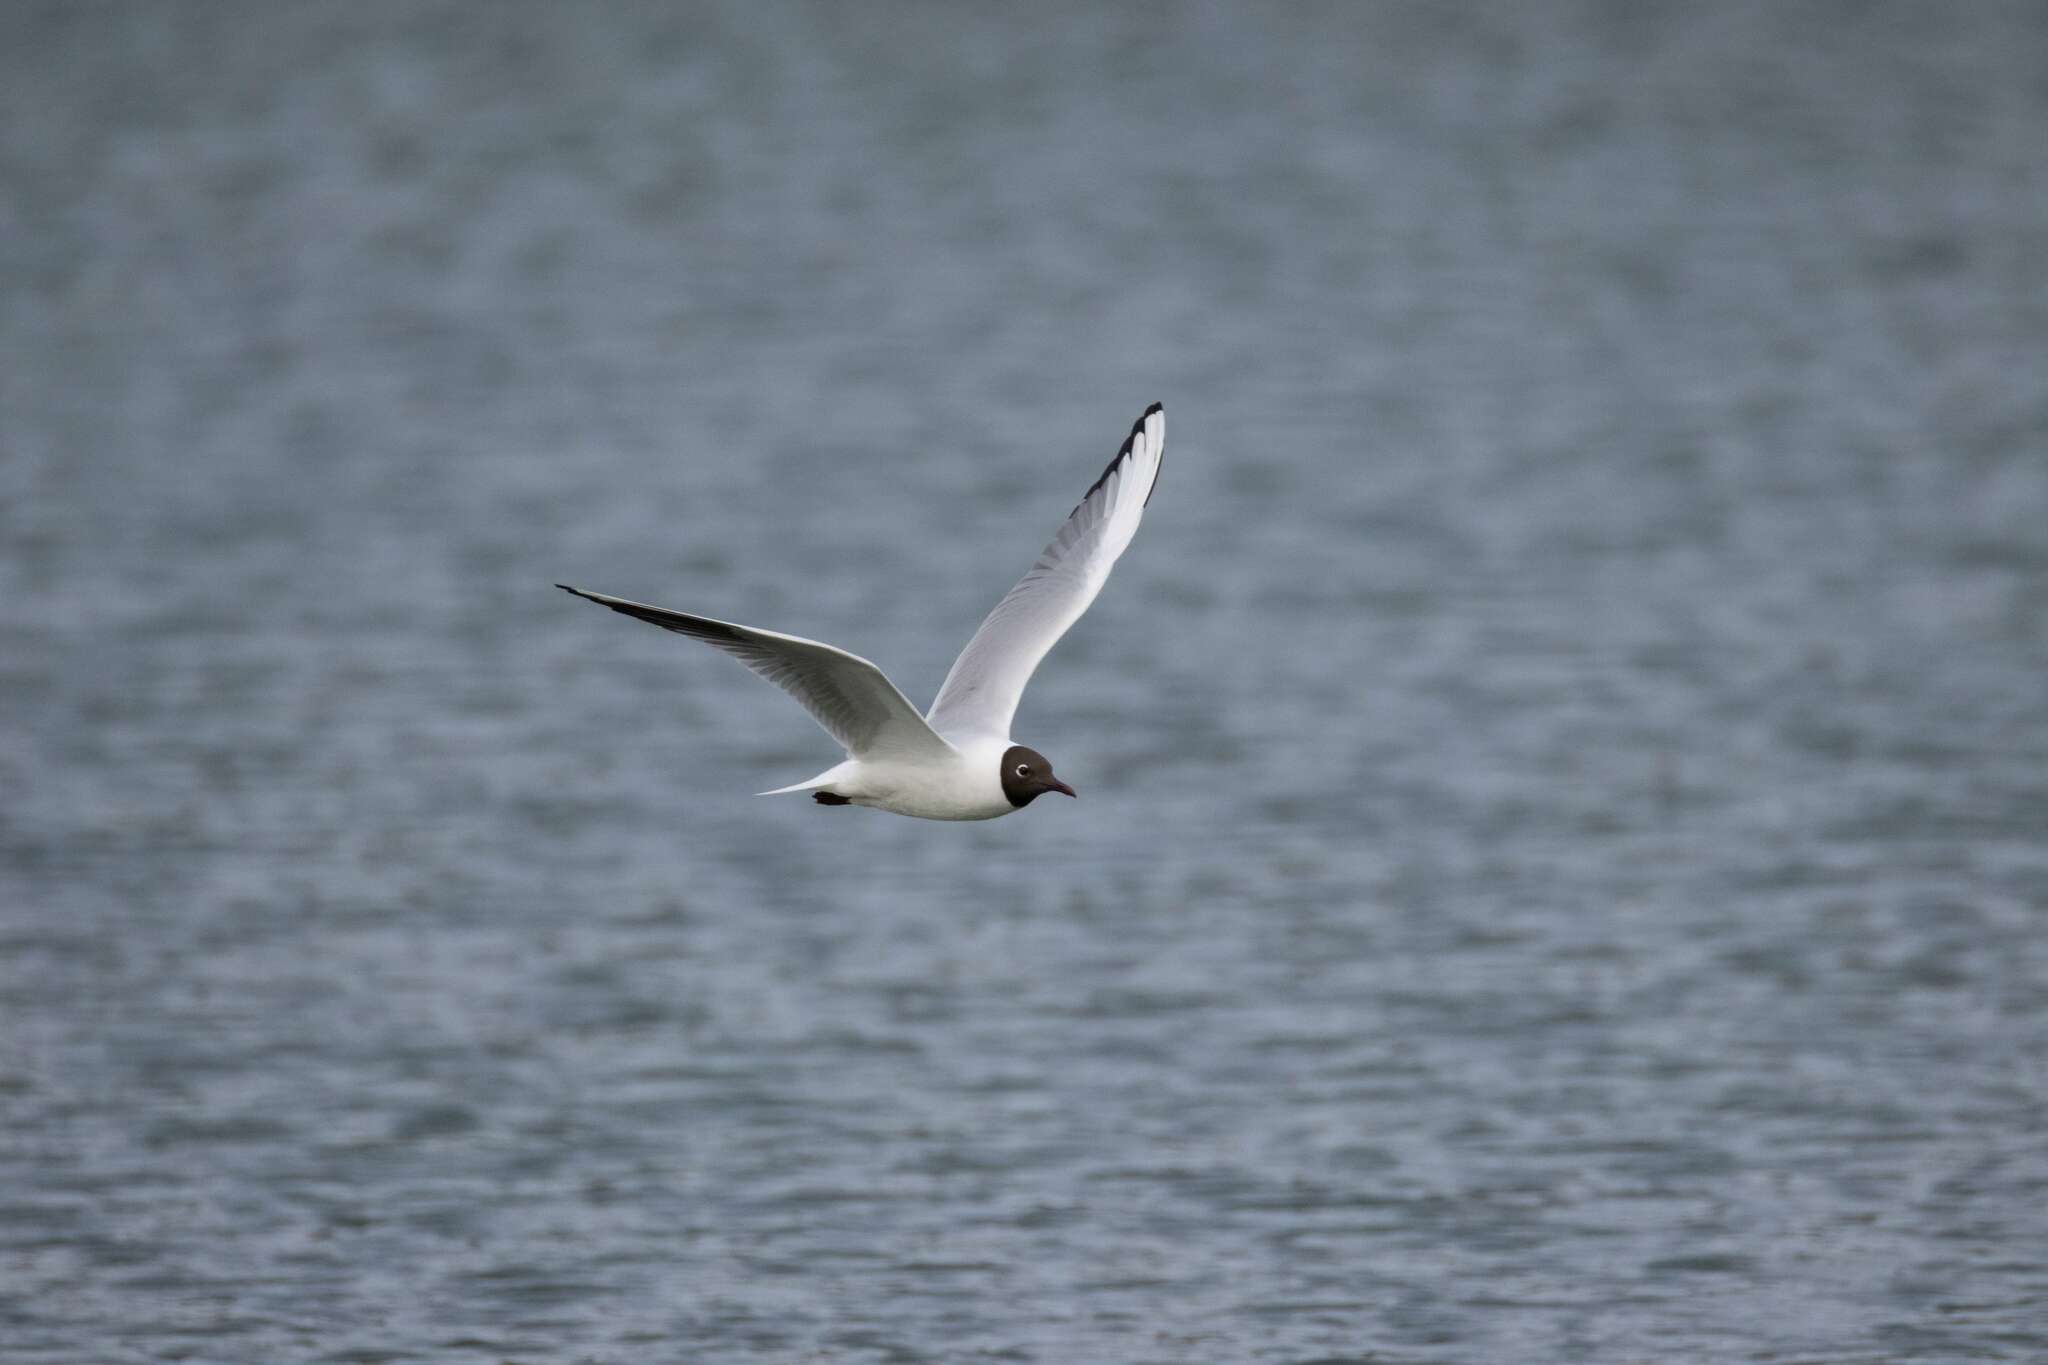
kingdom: Animalia
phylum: Chordata
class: Aves
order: Charadriiformes
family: Laridae
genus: Chroicocephalus
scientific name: Chroicocephalus ridibundus
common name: Black-headed gull
